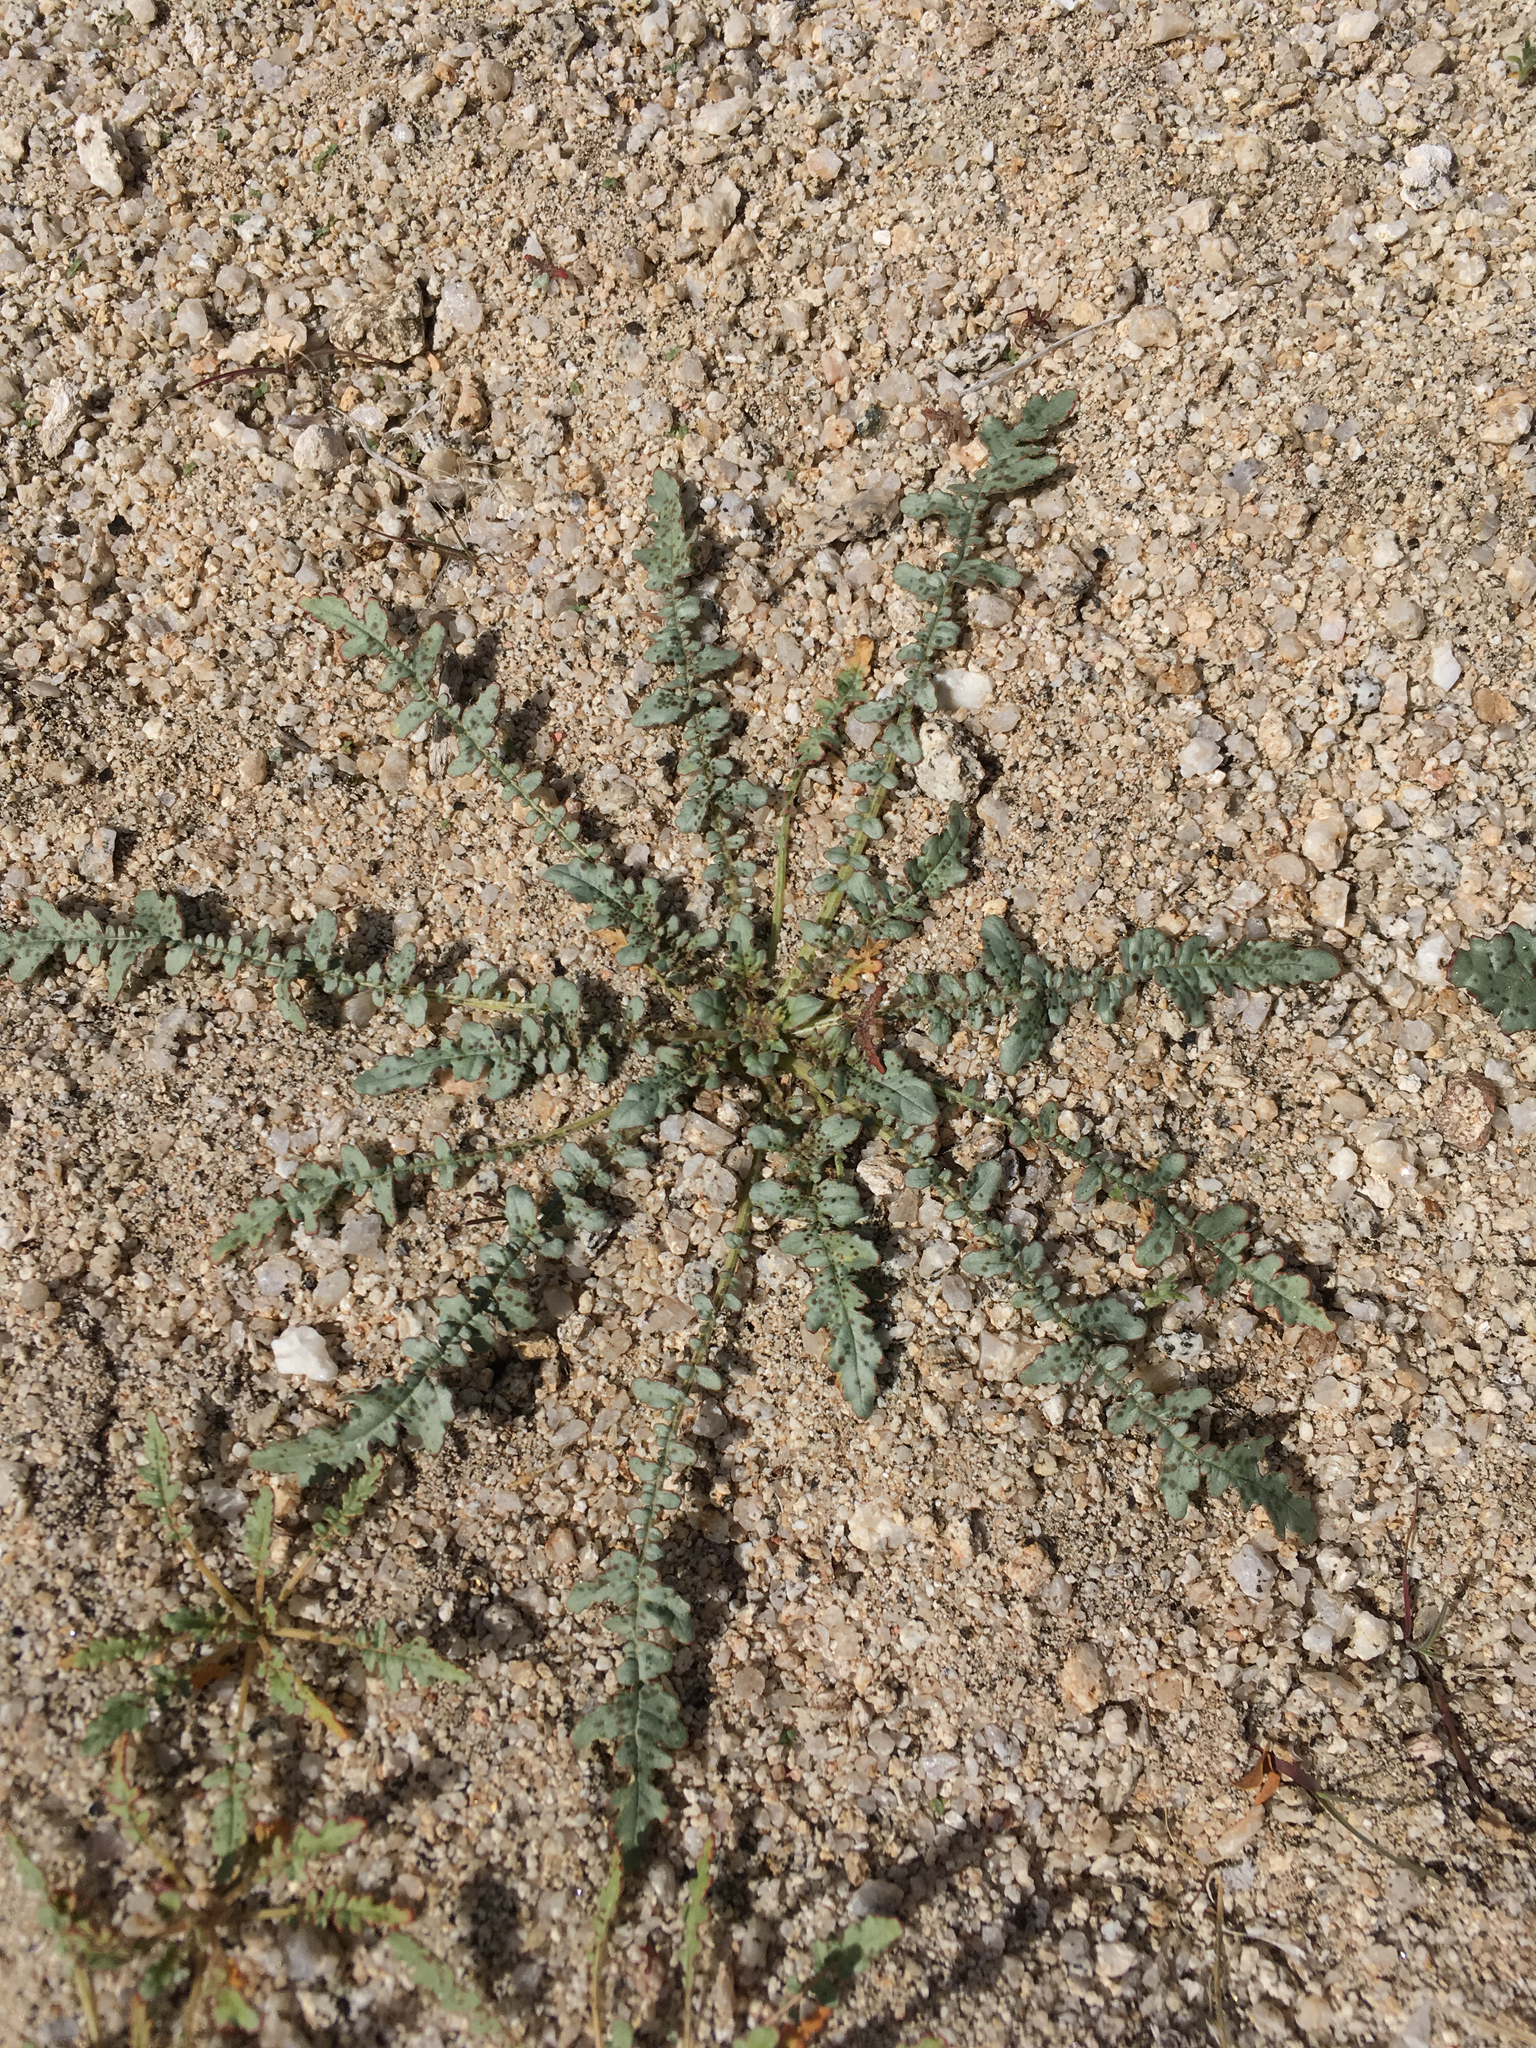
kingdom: Plantae
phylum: Tracheophyta
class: Magnoliopsida
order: Myrtales
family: Onagraceae
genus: Eulobus
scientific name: Eulobus californicus
